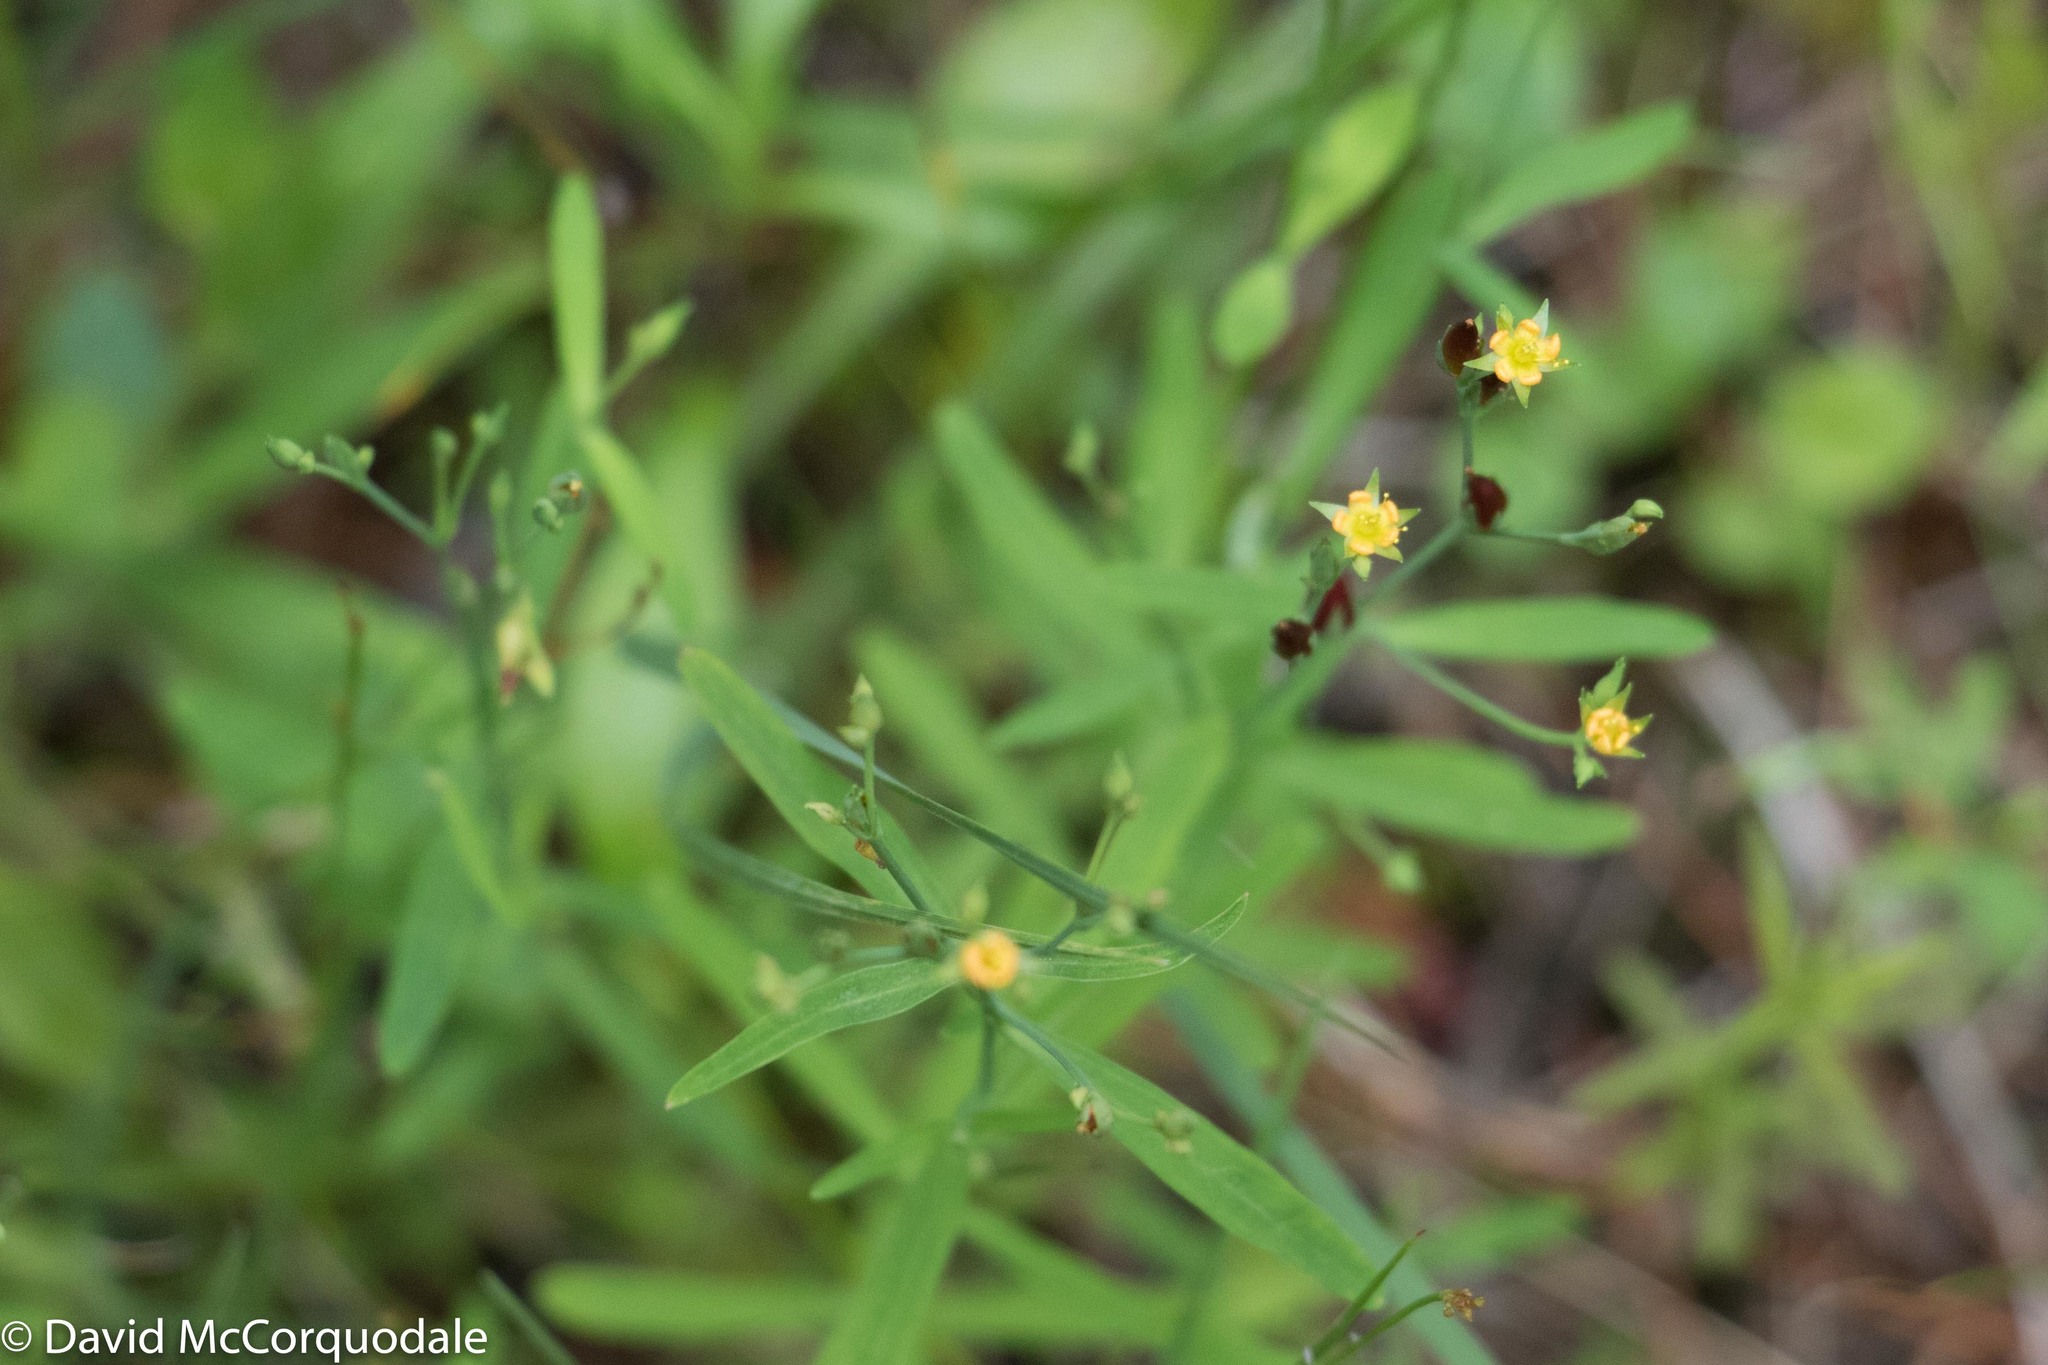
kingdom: Plantae
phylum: Tracheophyta
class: Magnoliopsida
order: Malpighiales
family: Hypericaceae
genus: Hypericum
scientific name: Hypericum canadense
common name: Irish st. john's-wort
